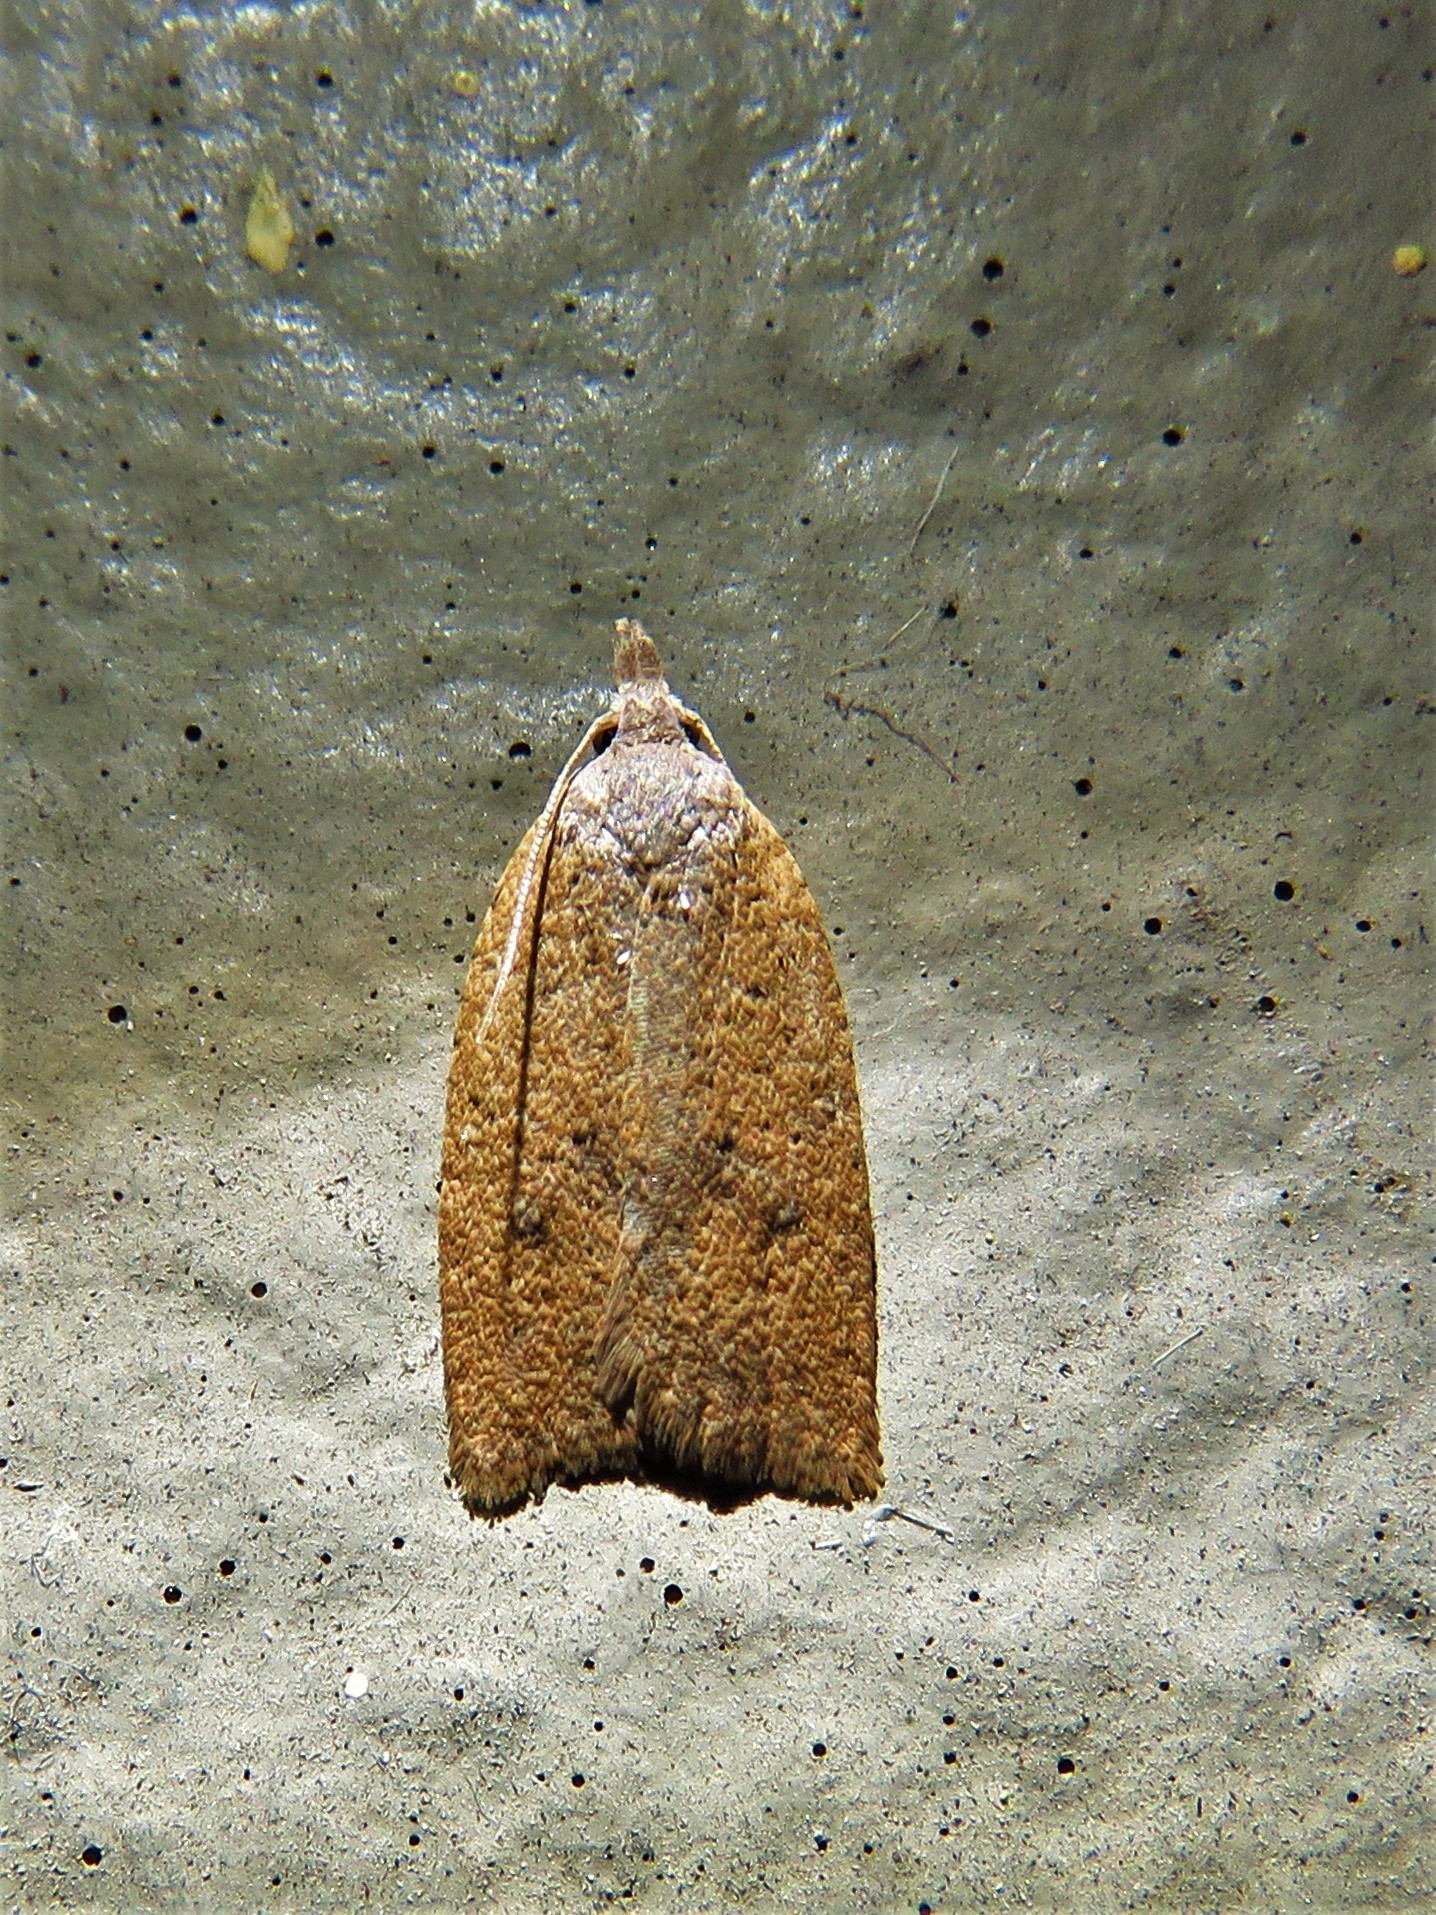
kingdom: Animalia
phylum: Arthropoda
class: Insecta
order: Lepidoptera
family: Tortricidae
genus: Sparganothoides
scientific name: Sparganothoides lentiginosana
